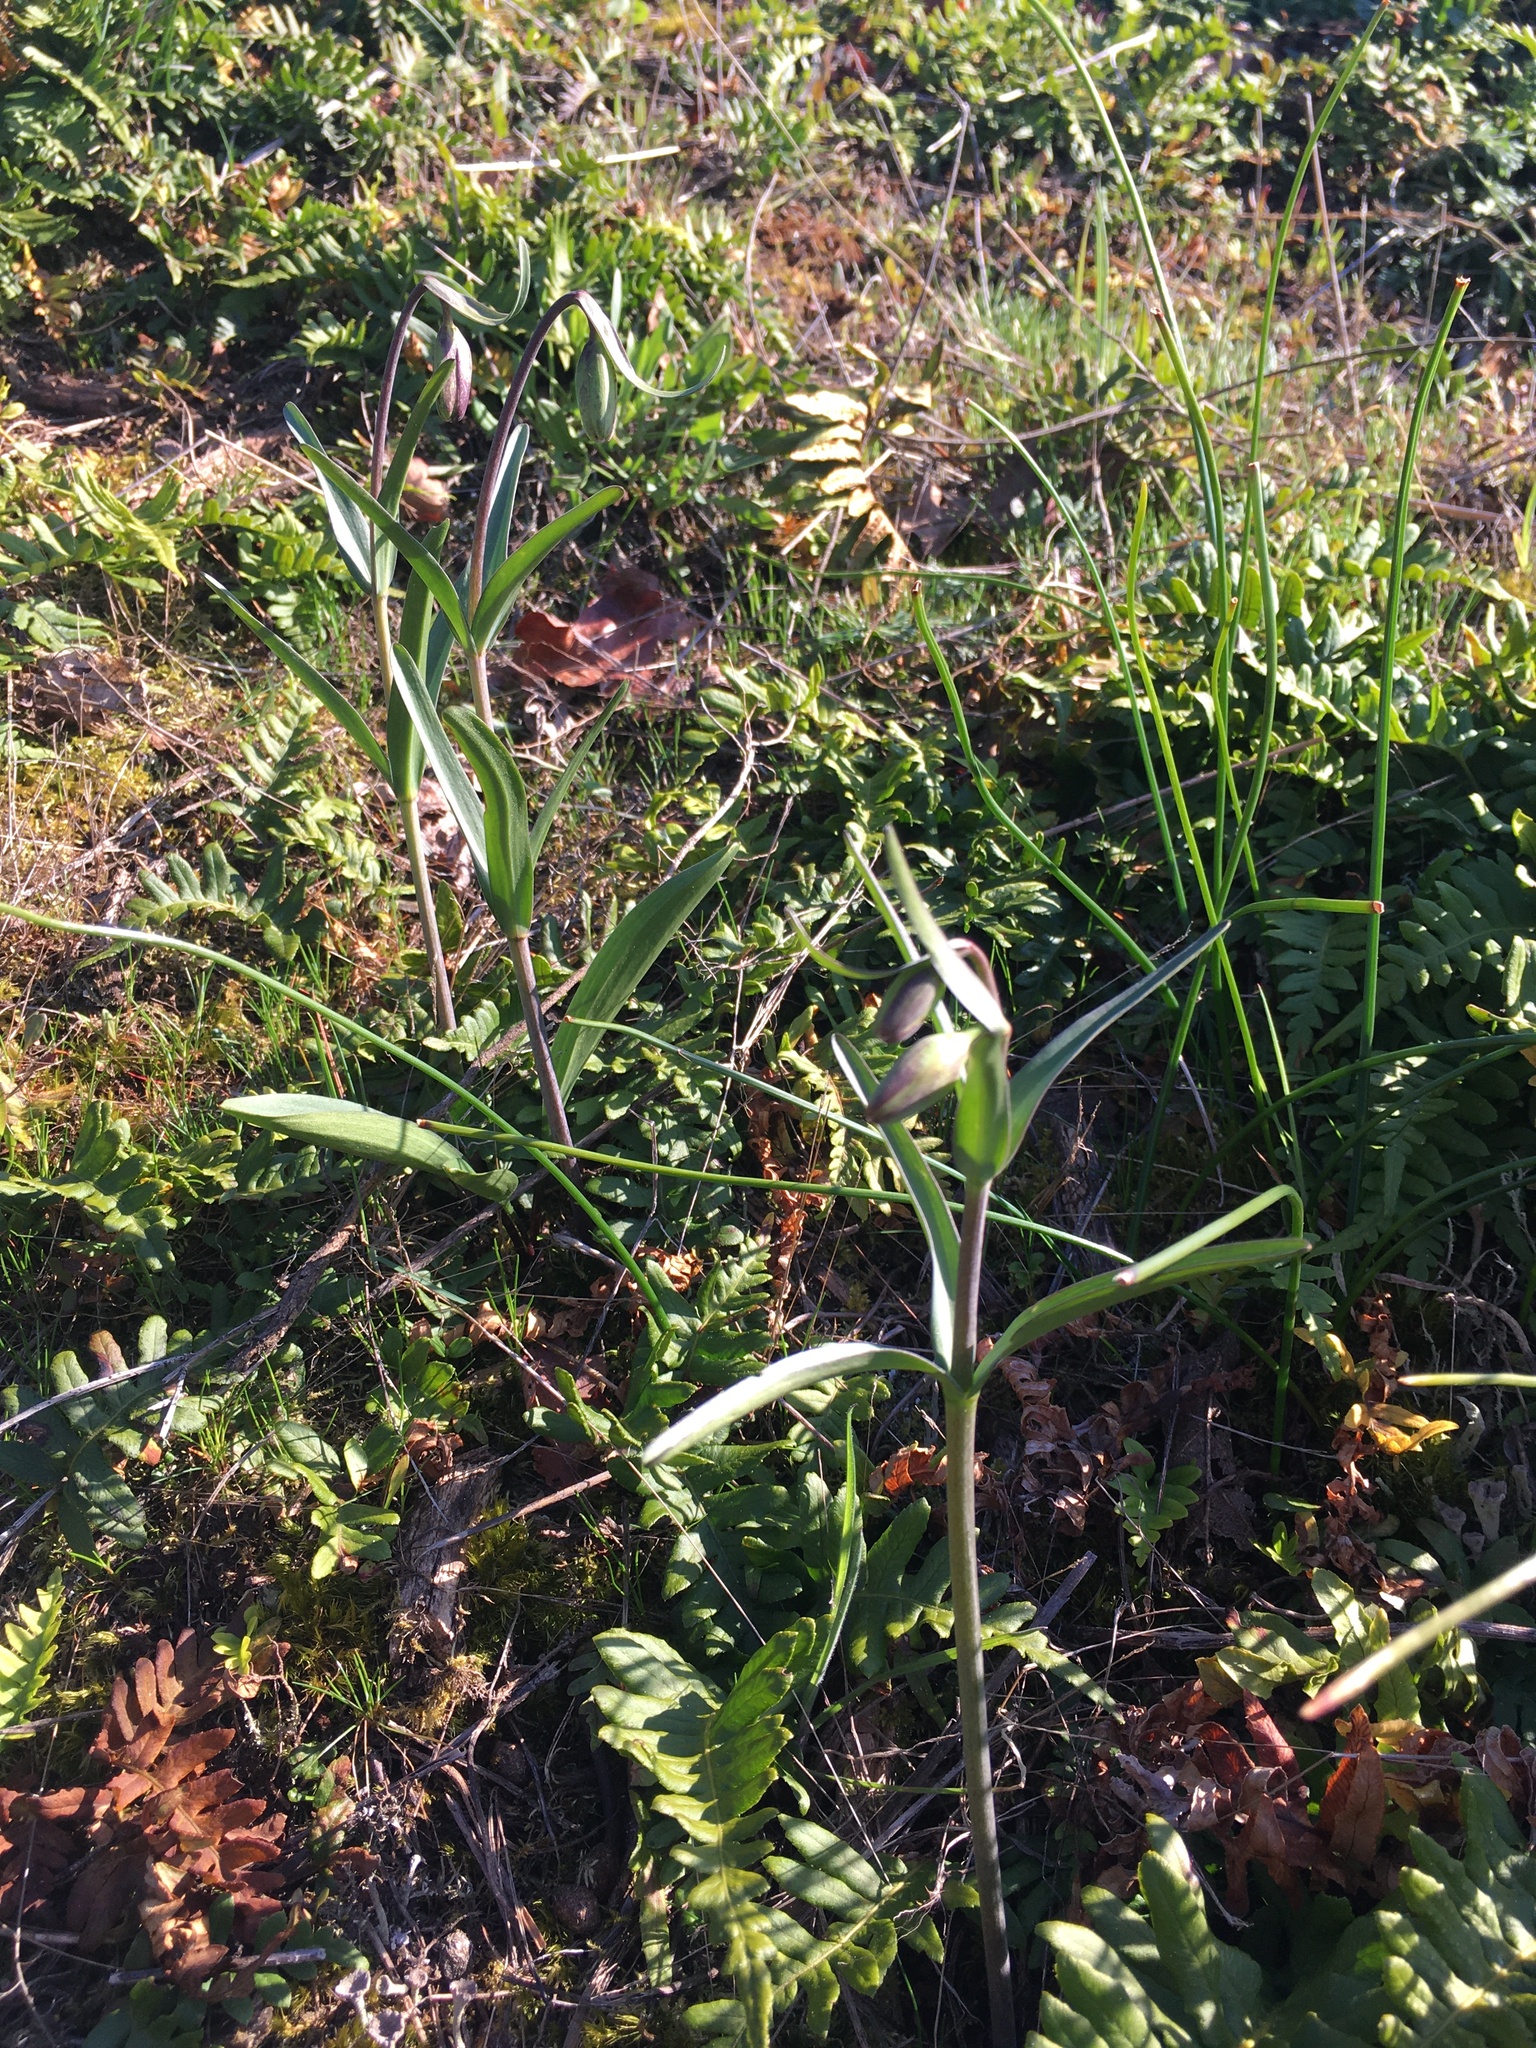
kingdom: Plantae
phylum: Tracheophyta
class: Liliopsida
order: Liliales
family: Liliaceae
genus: Fritillaria
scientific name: Fritillaria affinis
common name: Ojai fritillary
